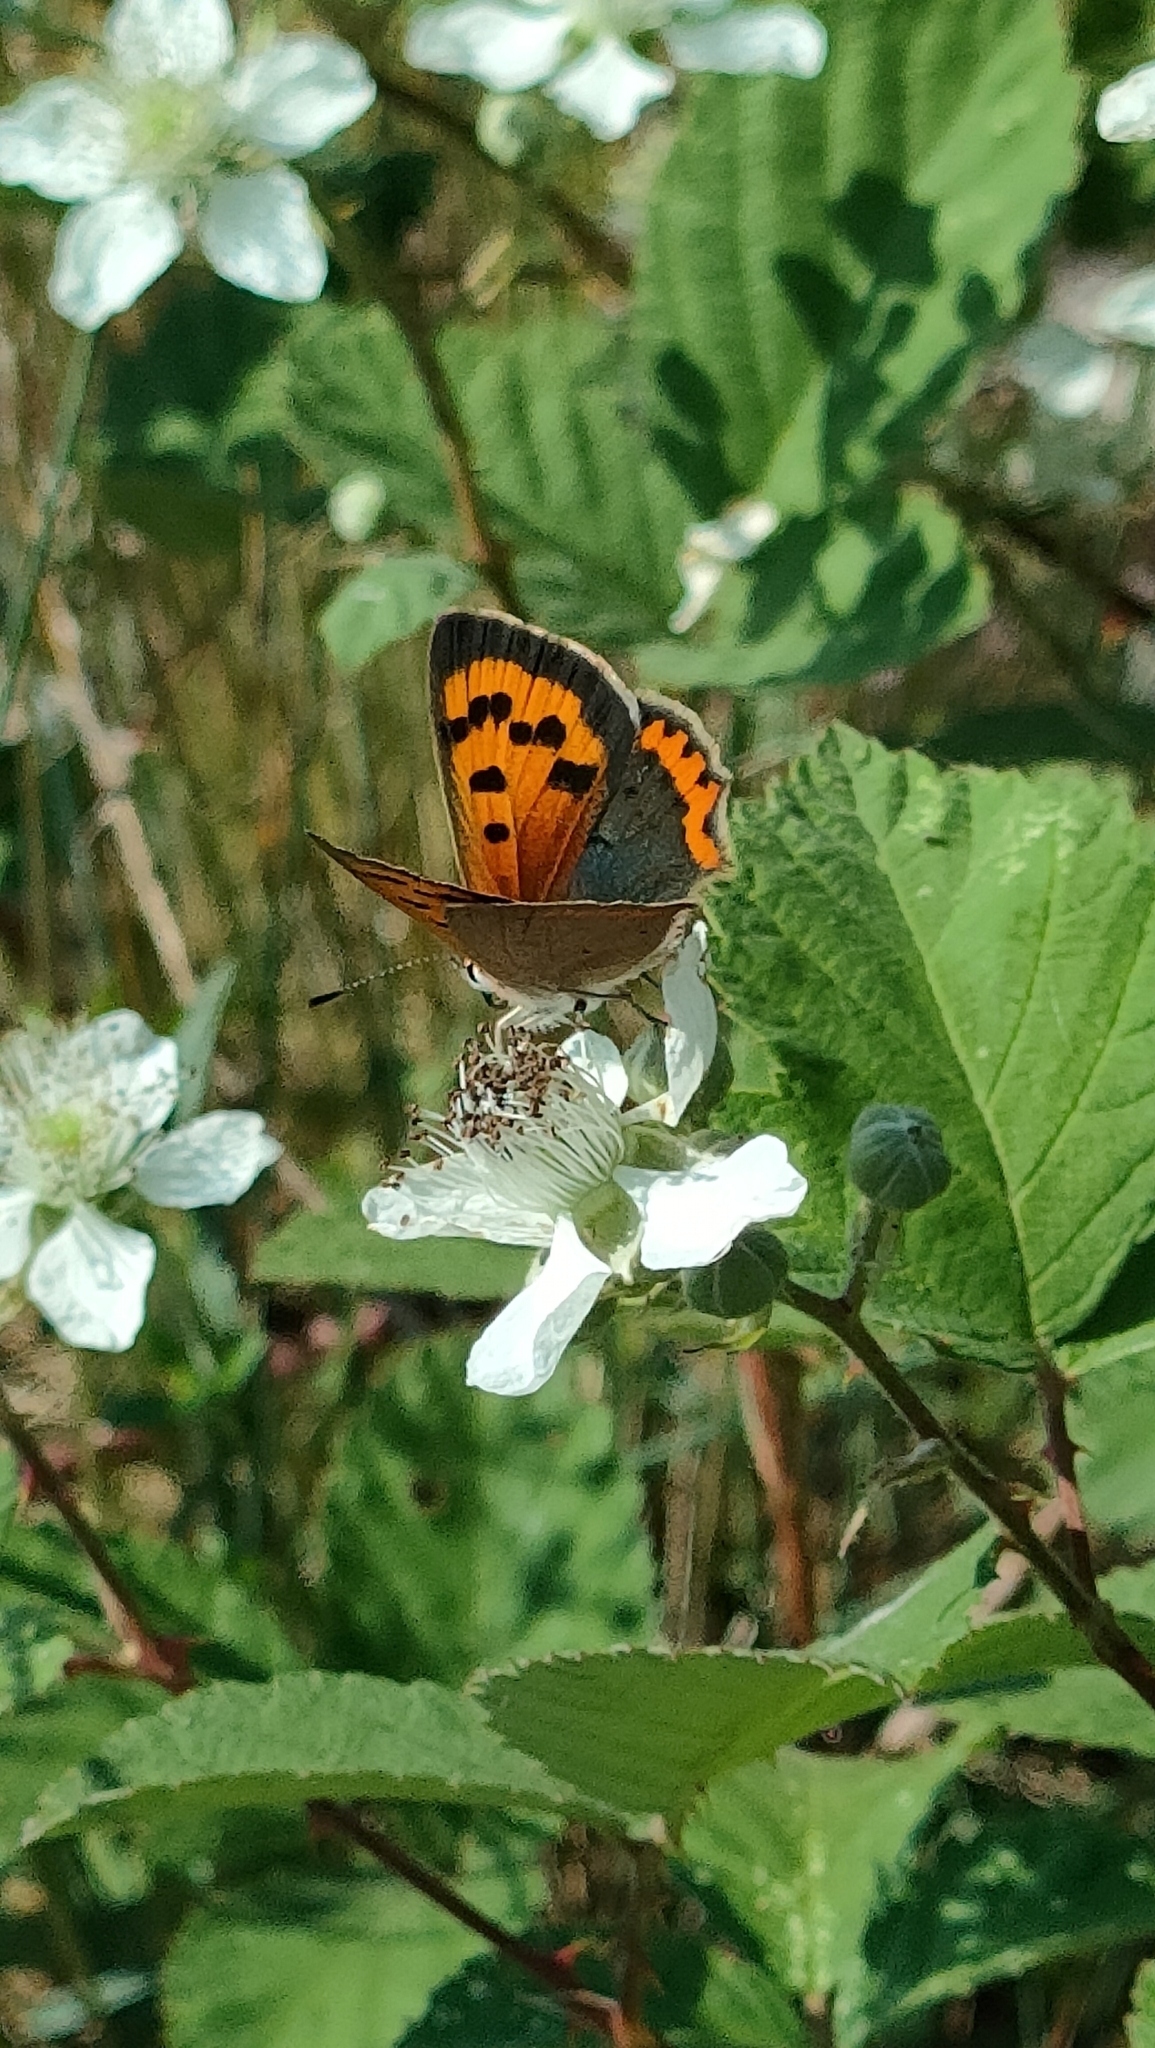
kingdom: Animalia
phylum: Arthropoda
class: Insecta
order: Lepidoptera
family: Lycaenidae
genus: Lycaena
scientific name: Lycaena phlaeas
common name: Small copper
